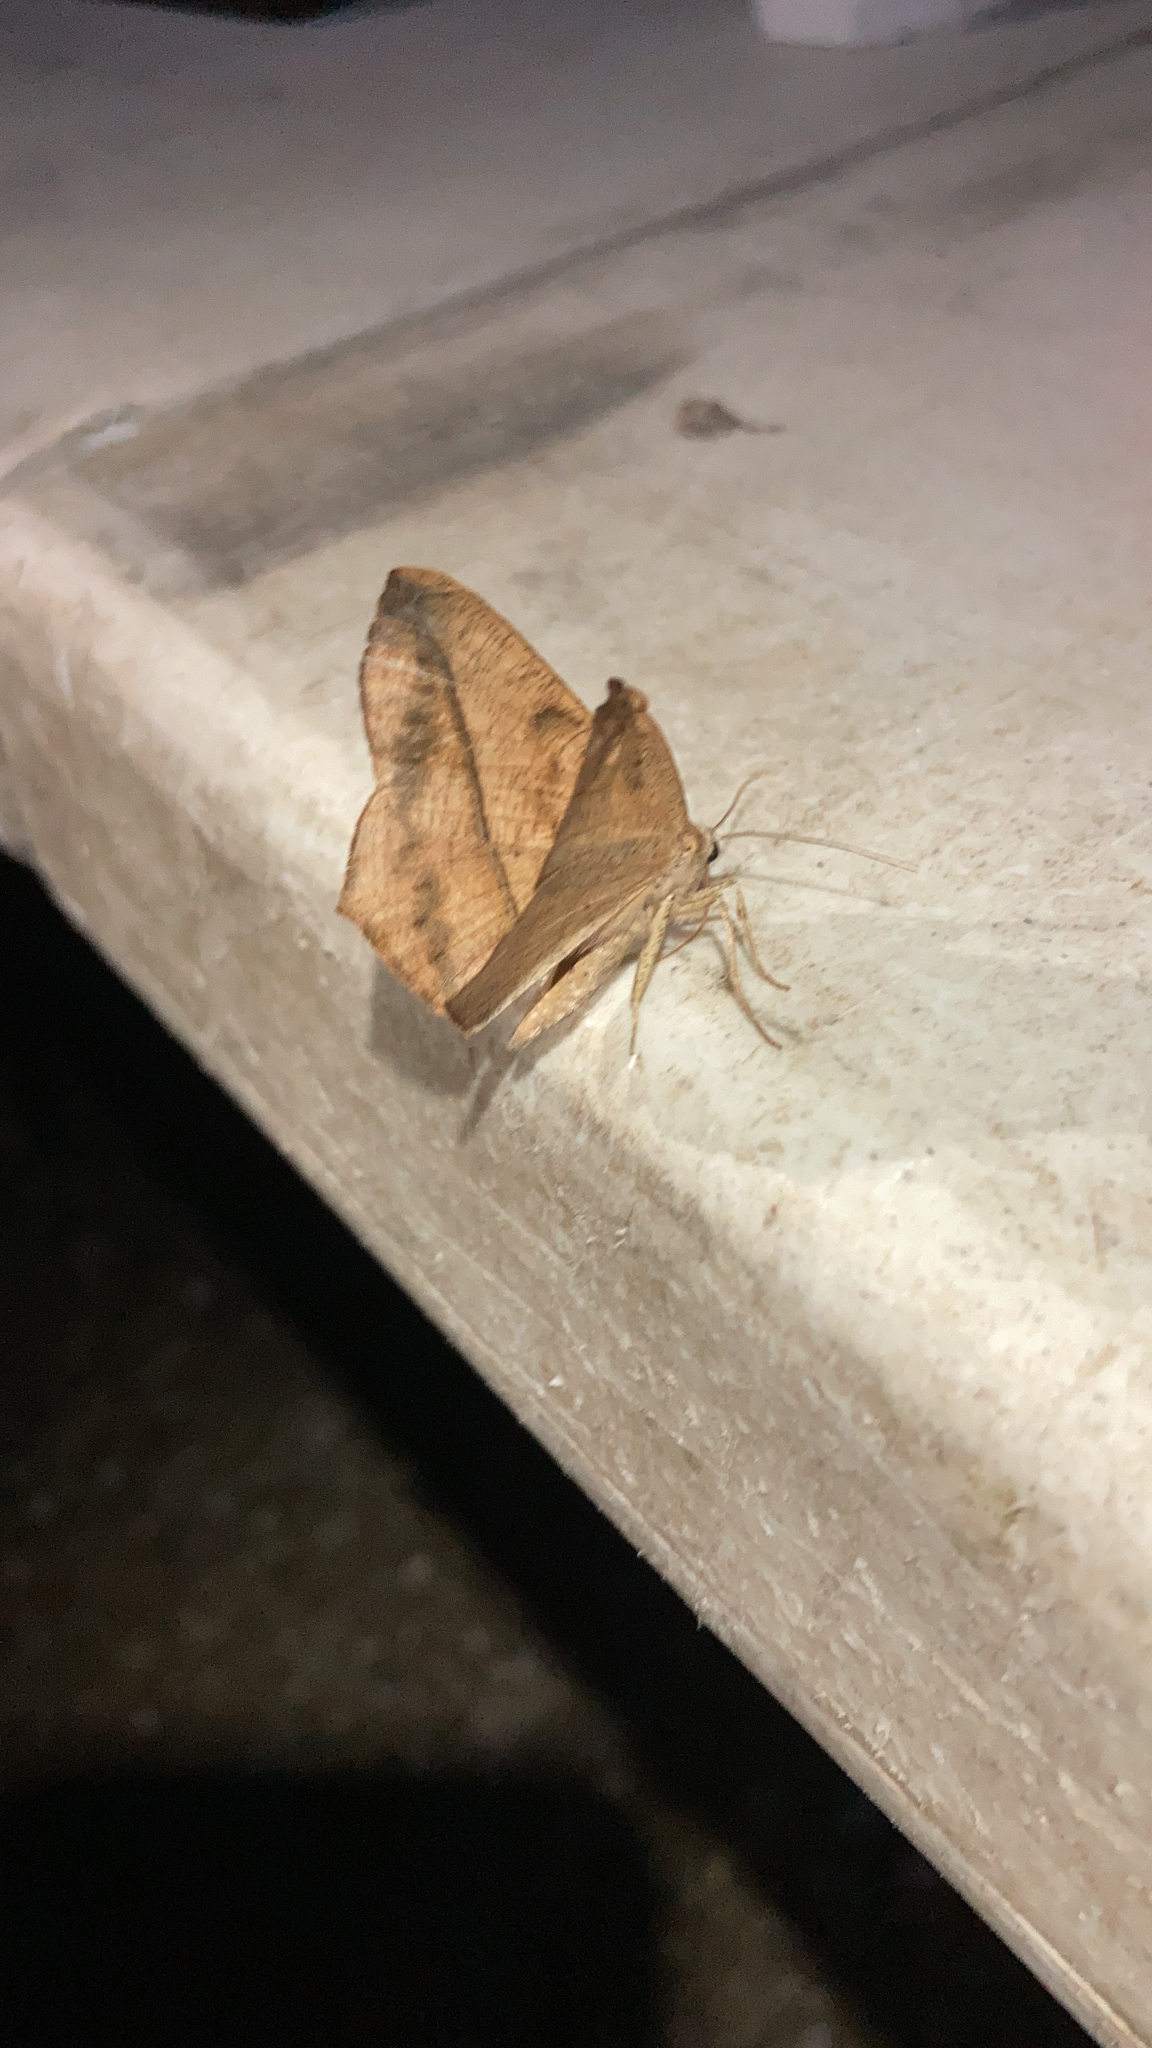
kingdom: Animalia
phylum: Arthropoda
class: Insecta
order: Lepidoptera
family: Geometridae
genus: Prochoerodes
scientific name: Prochoerodes lineola
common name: Large maple spanworm
